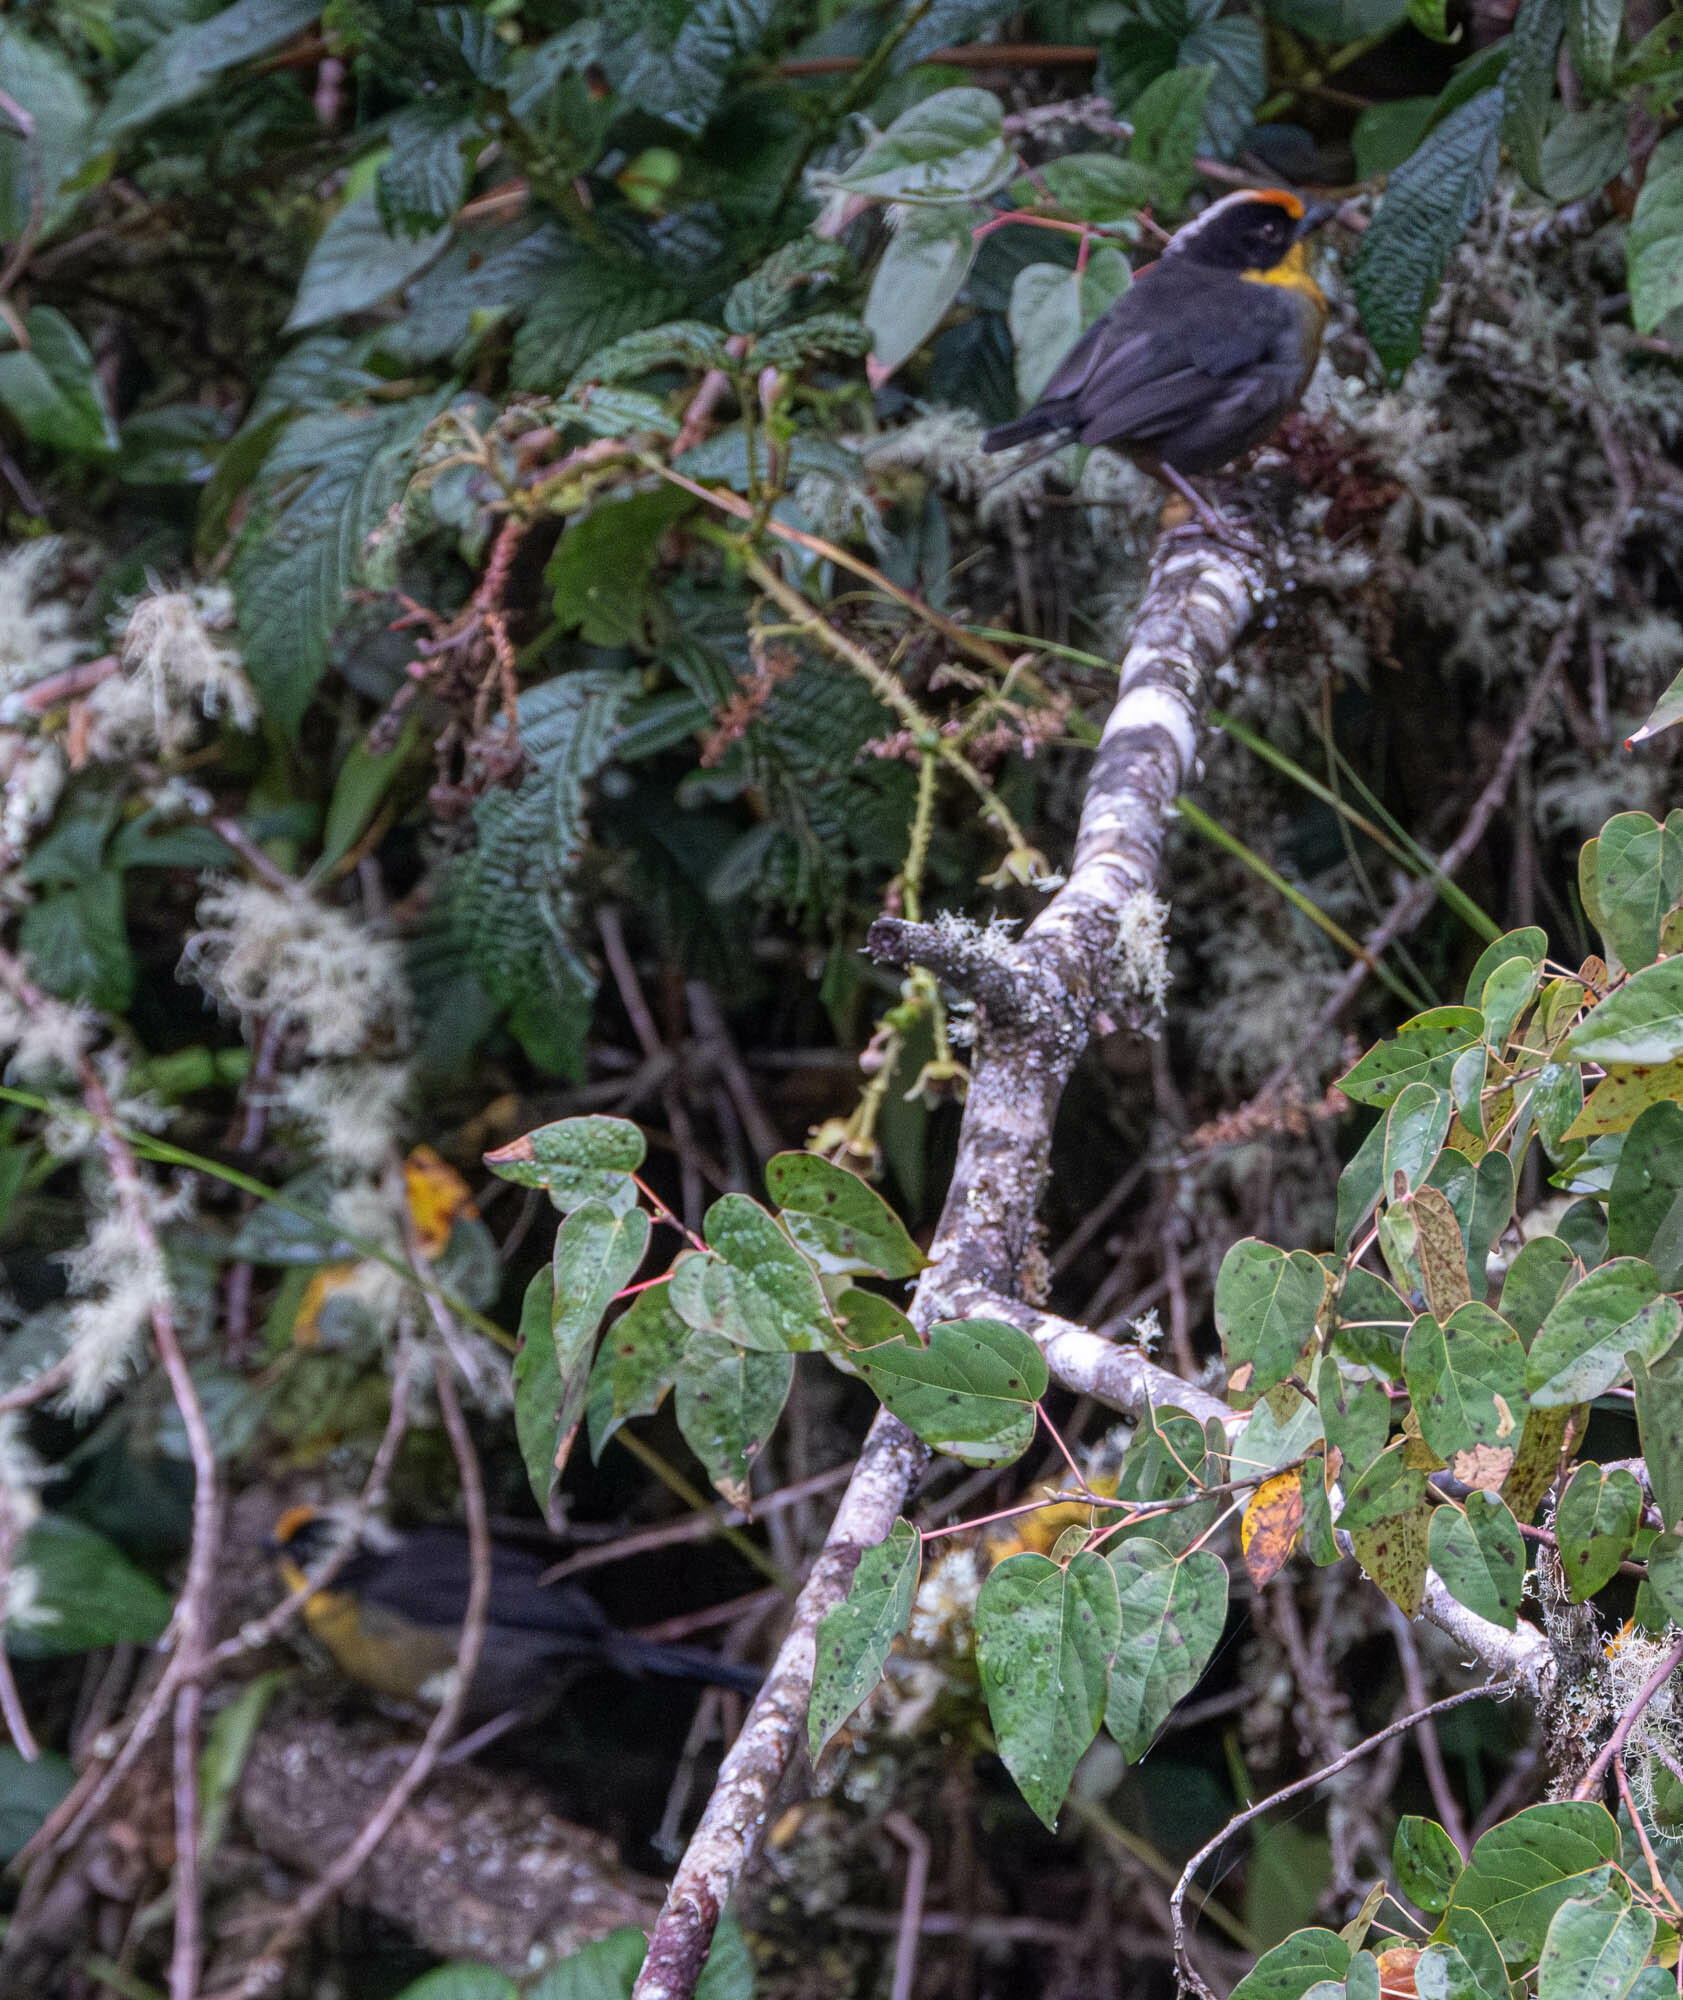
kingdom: Animalia
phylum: Chordata
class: Aves
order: Passeriformes
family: Passerellidae
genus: Atlapetes
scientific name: Atlapetes pallidinucha
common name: Pale-naped brushfinch
